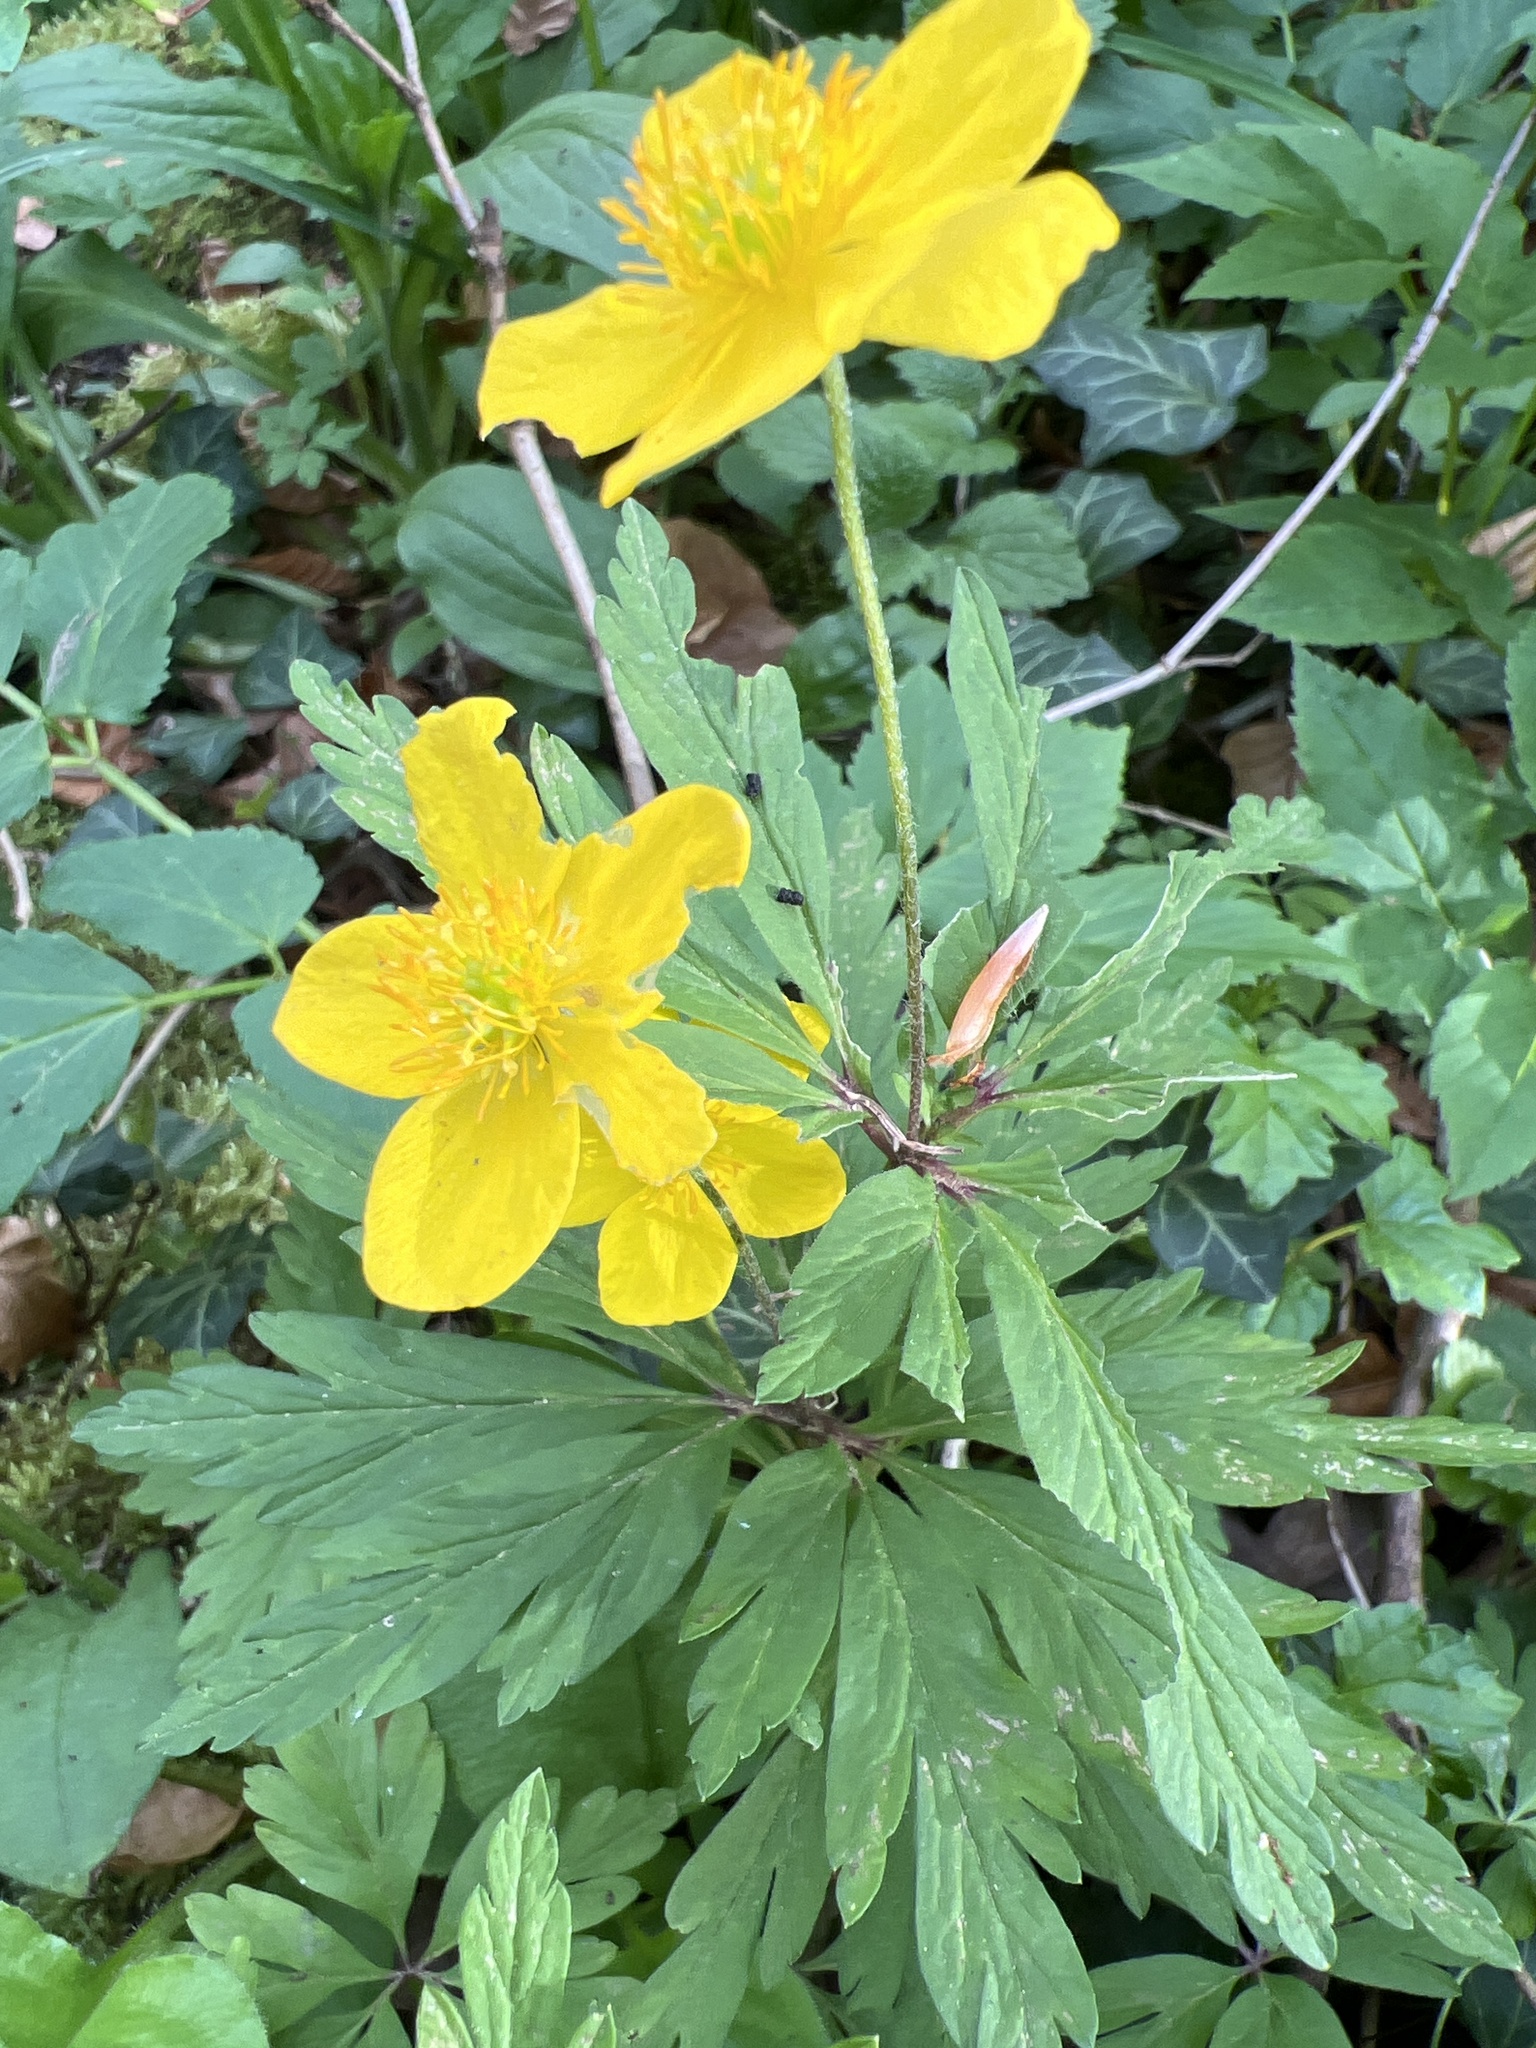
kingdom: Plantae
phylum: Tracheophyta
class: Magnoliopsida
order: Ranunculales
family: Ranunculaceae
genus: Anemone
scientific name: Anemone ranunculoides
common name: Yellow anemone
